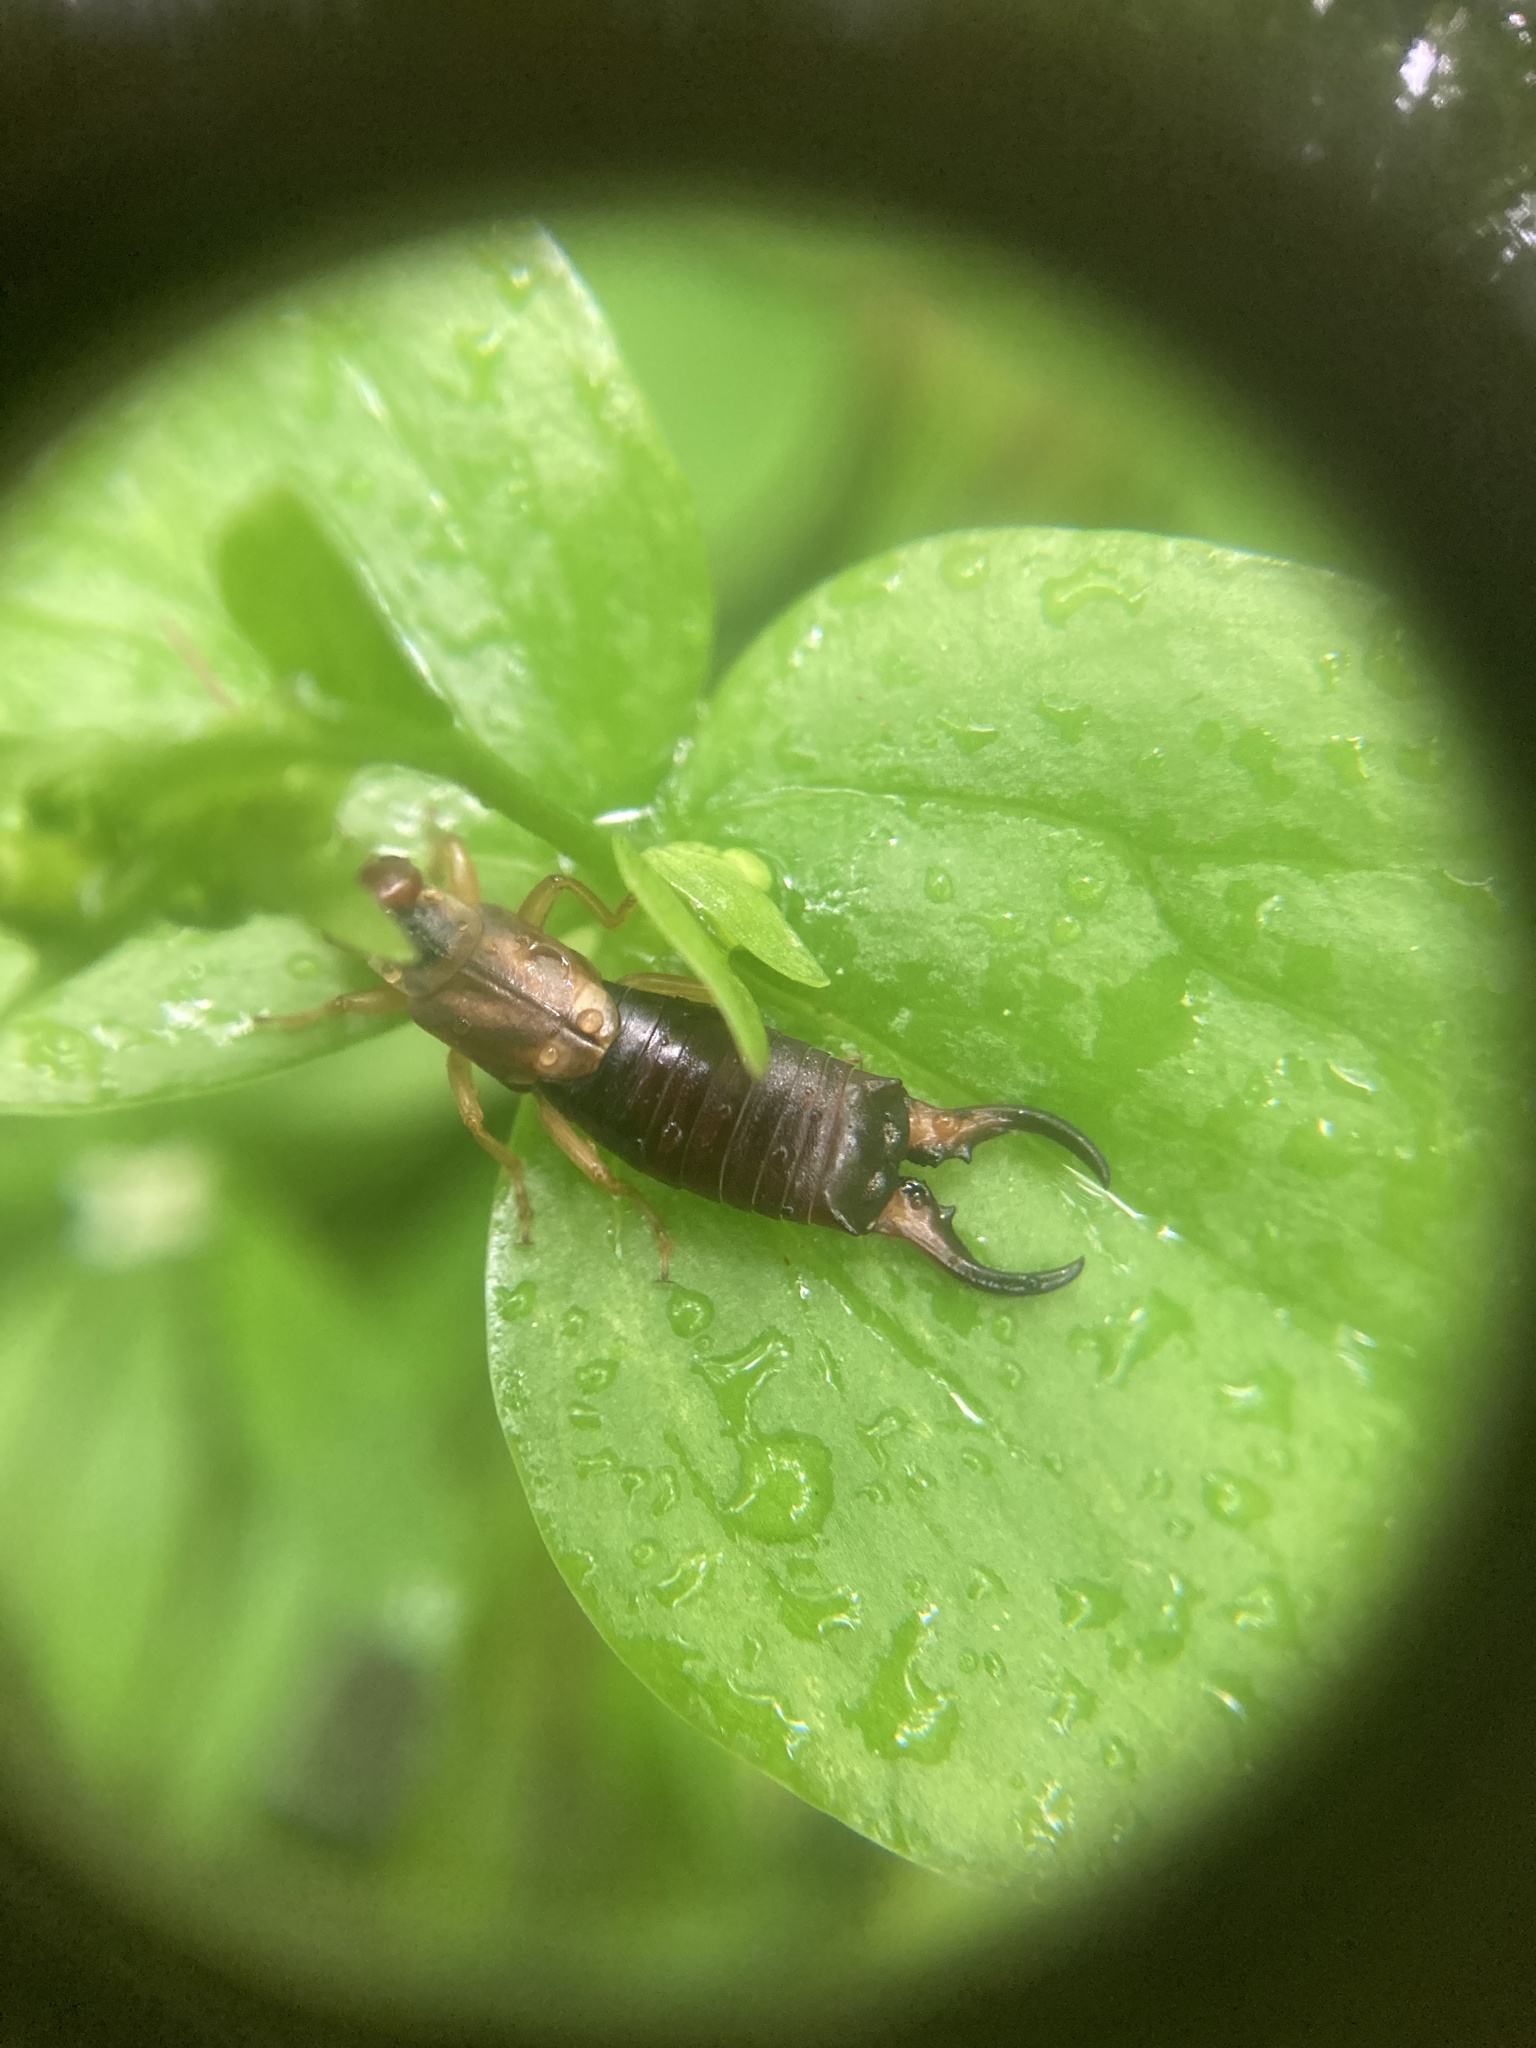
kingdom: Animalia
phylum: Arthropoda
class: Insecta
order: Dermaptera
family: Forficulidae
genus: Forficula
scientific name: Forficula
